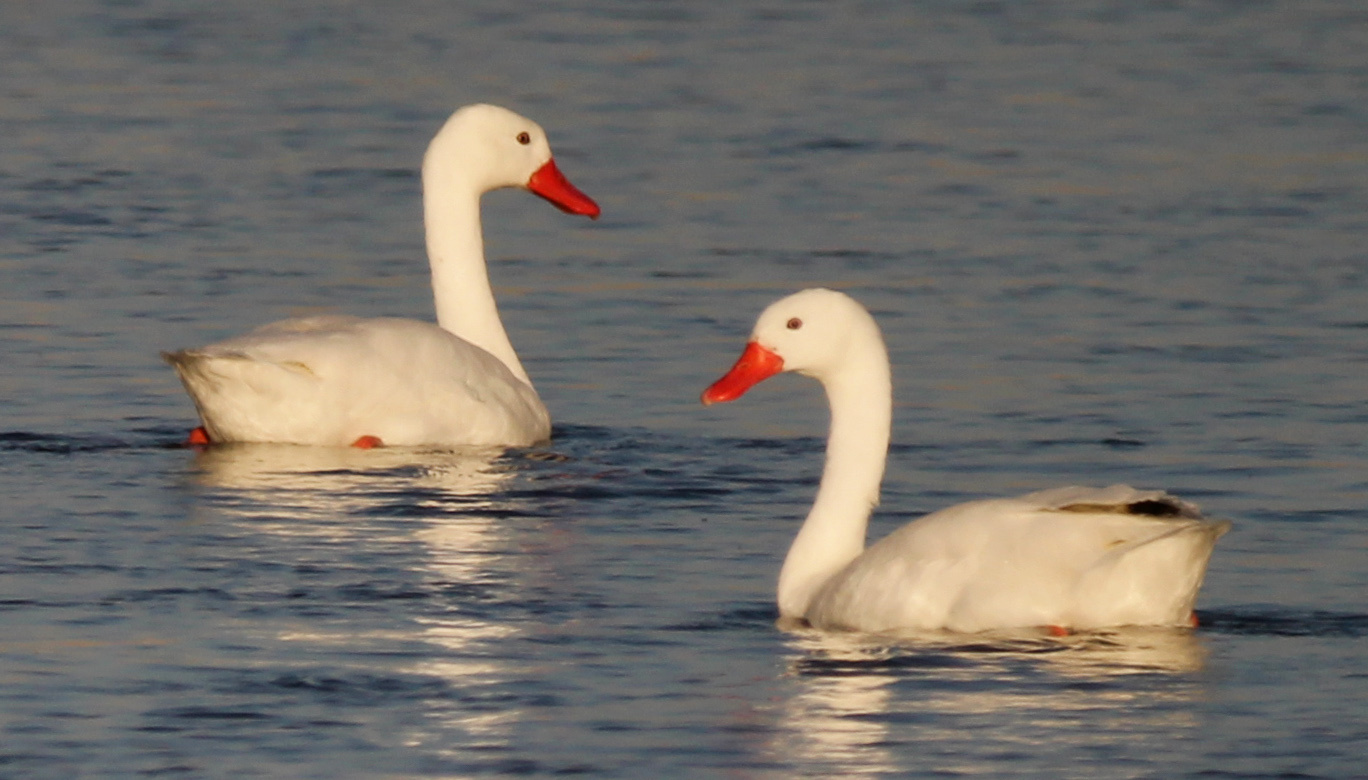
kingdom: Animalia
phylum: Chordata
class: Aves
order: Anseriformes
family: Anatidae
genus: Coscoroba
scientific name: Coscoroba coscoroba
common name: Coscoroba swan
